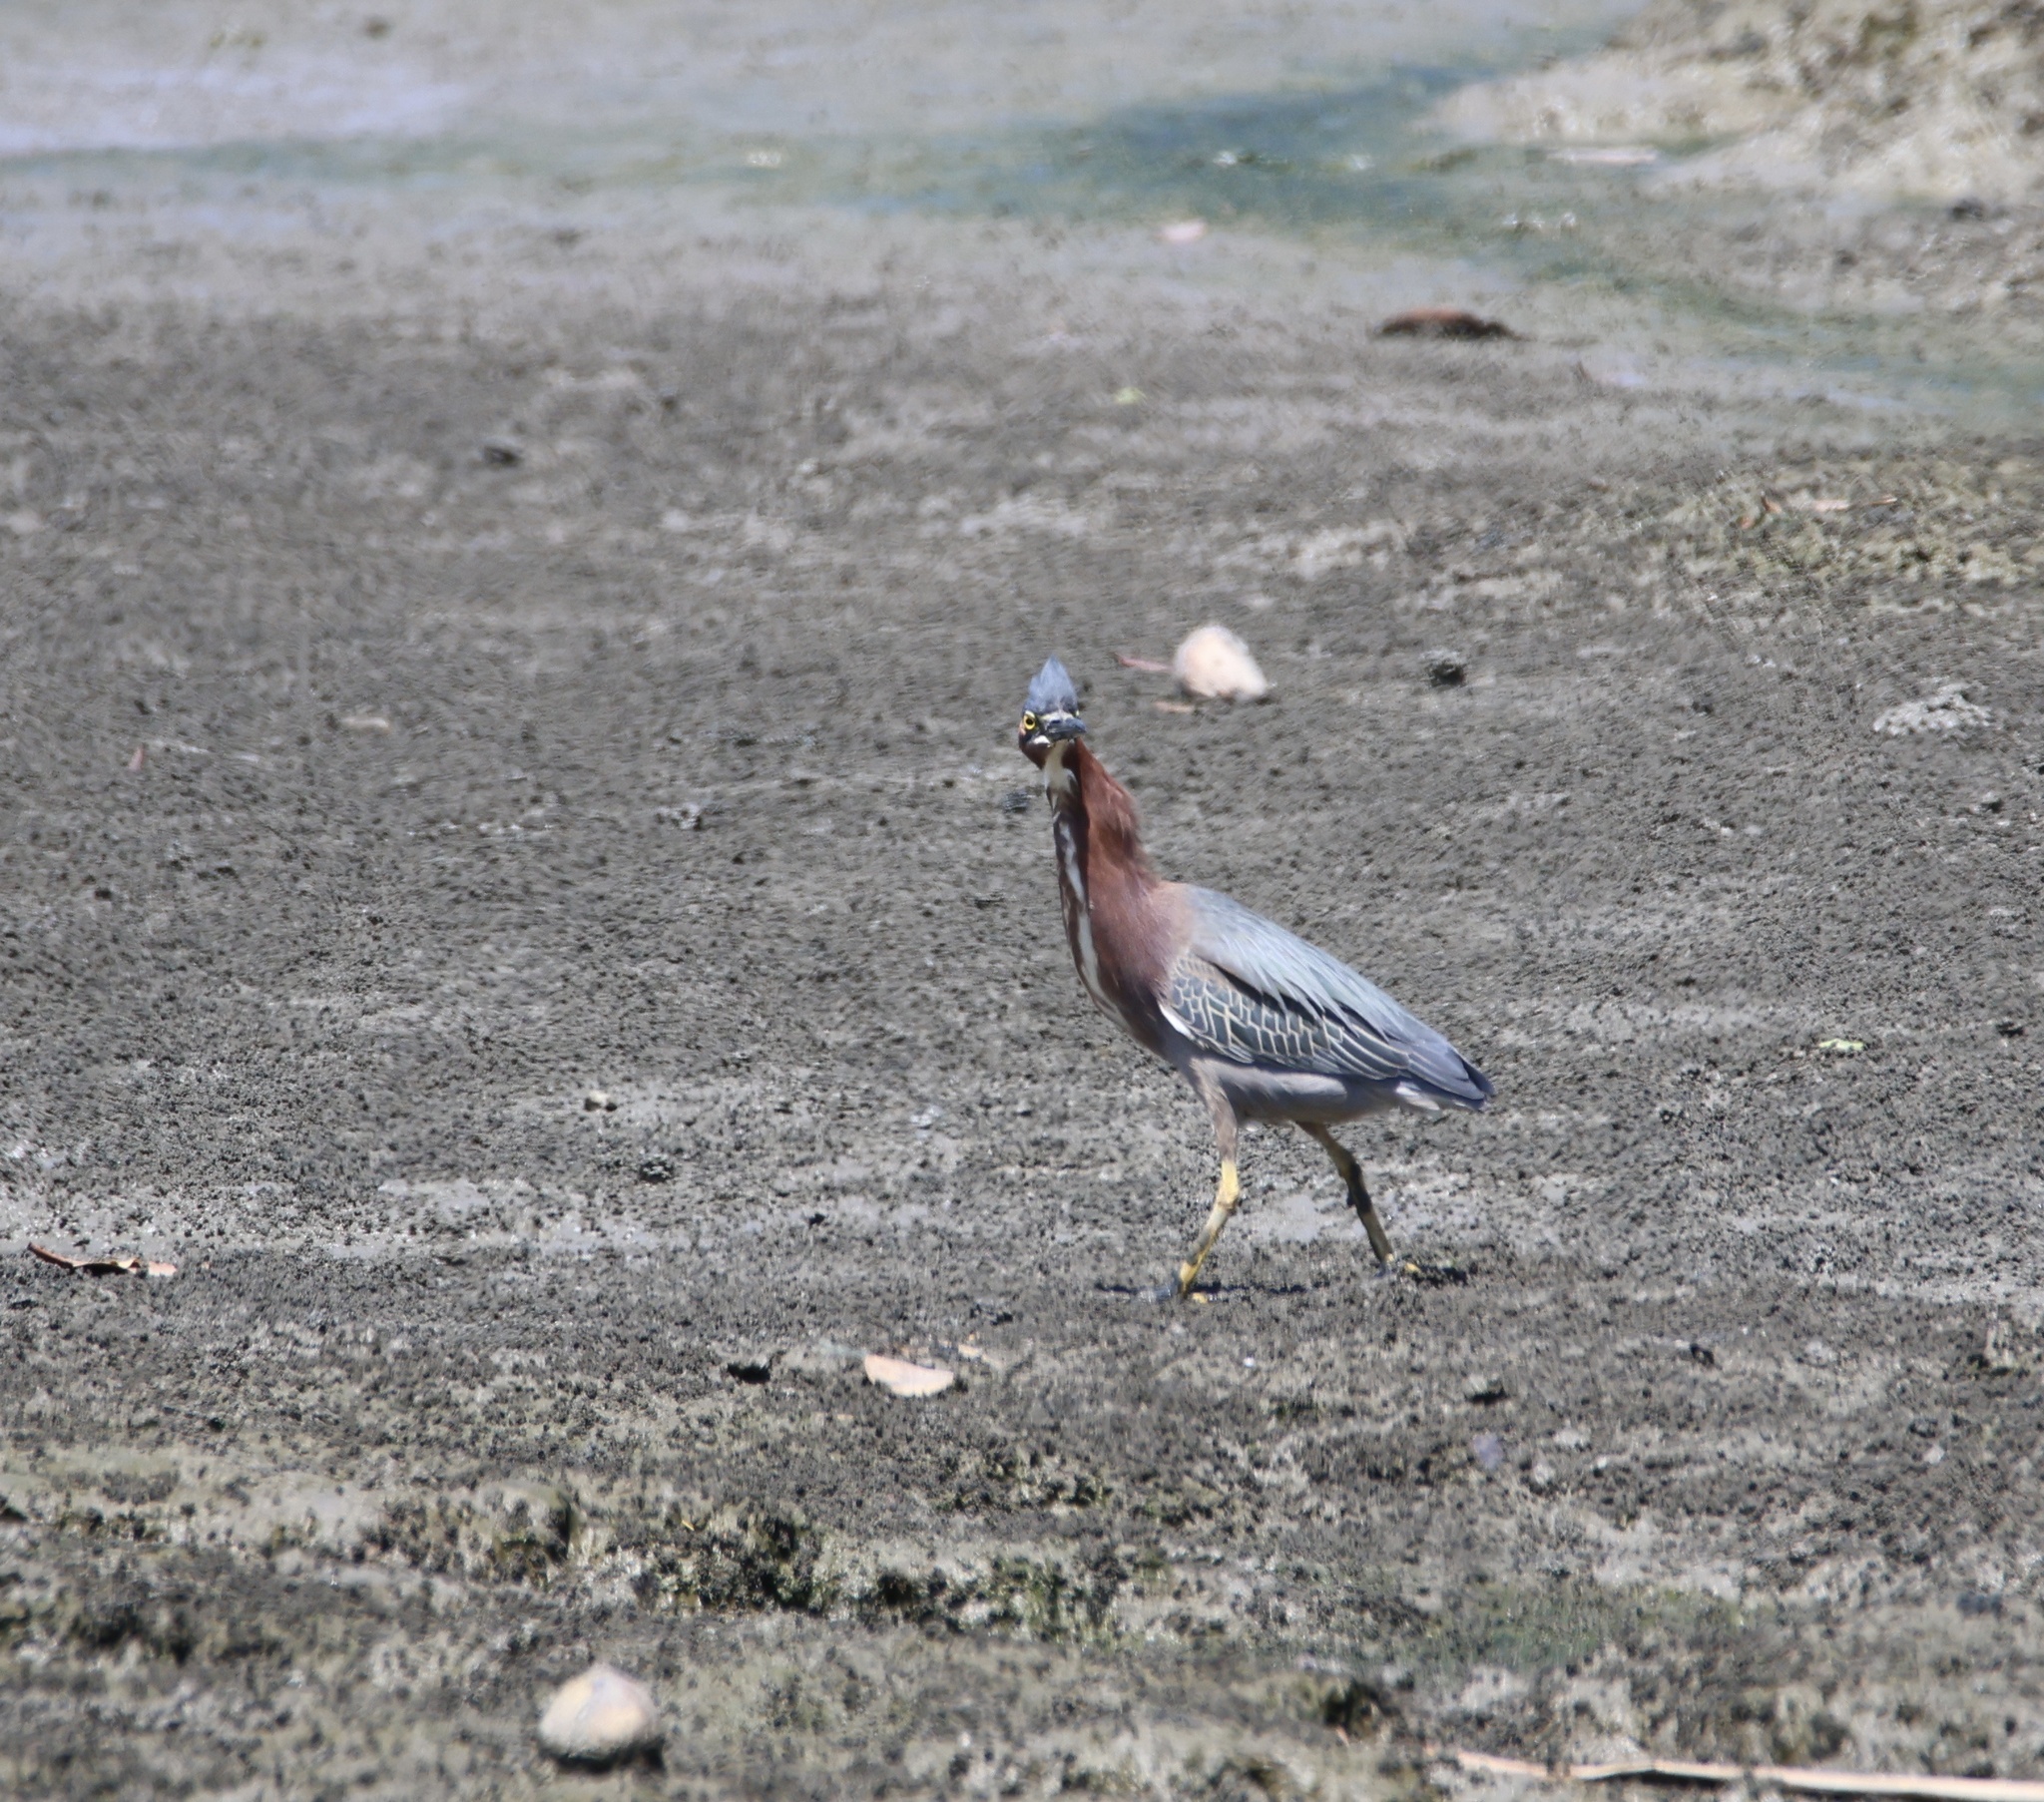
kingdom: Animalia
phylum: Chordata
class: Aves
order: Pelecaniformes
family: Ardeidae
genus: Butorides
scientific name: Butorides virescens
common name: Green heron
